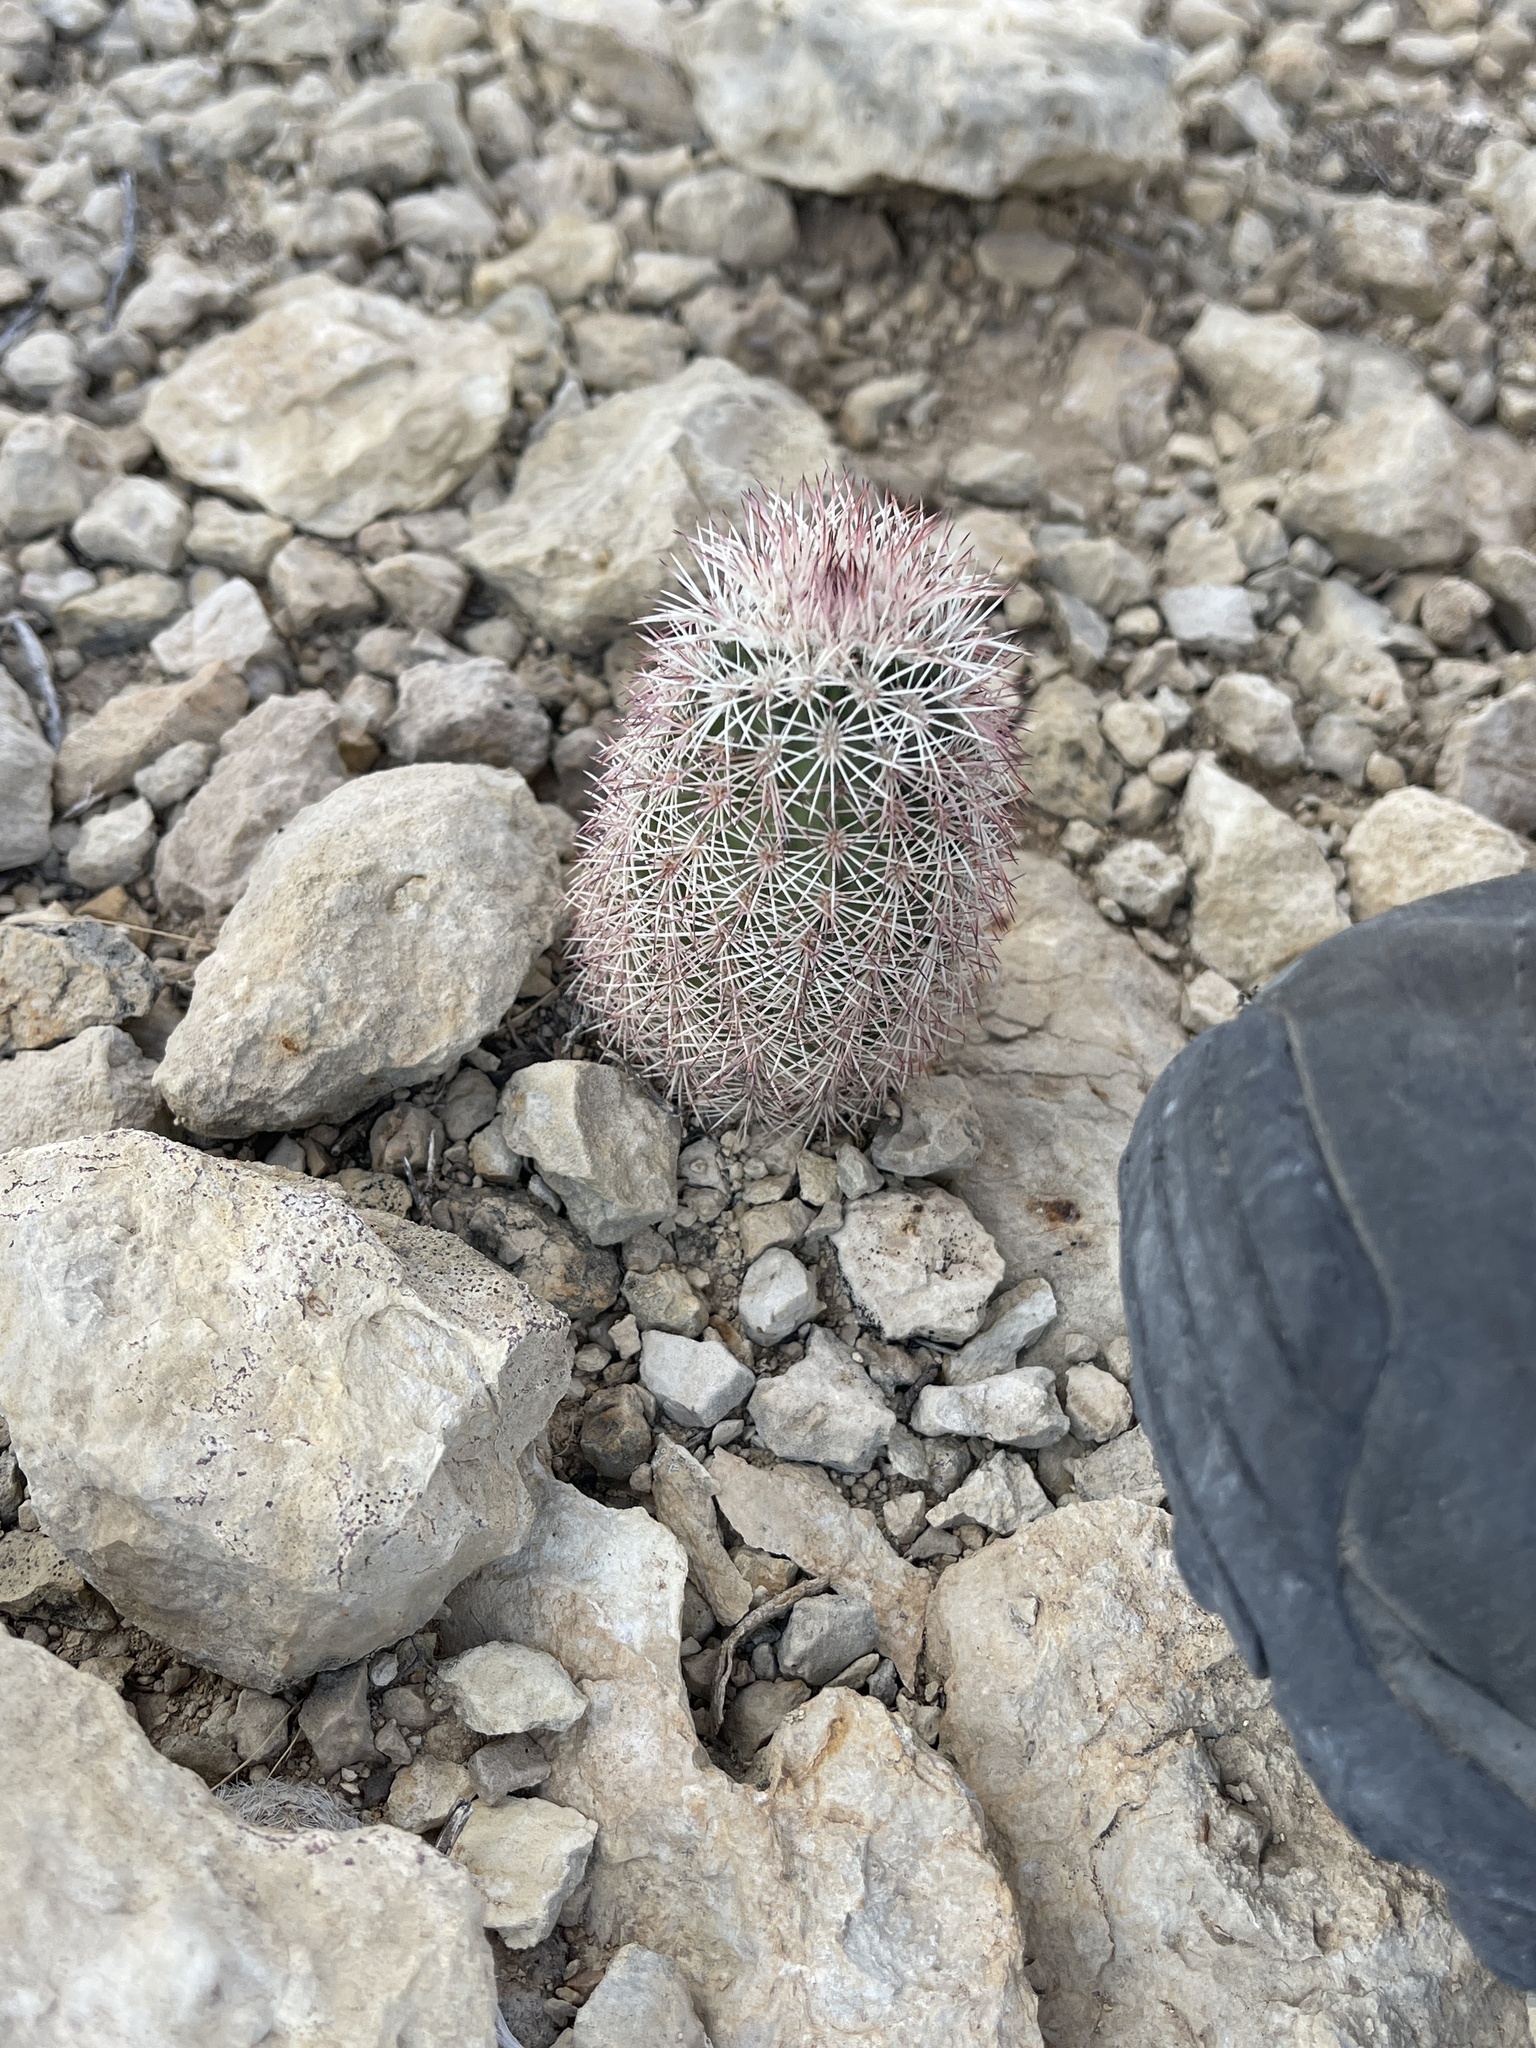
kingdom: Plantae
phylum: Tracheophyta
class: Magnoliopsida
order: Caryophyllales
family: Cactaceae
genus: Echinocereus
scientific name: Echinocereus dasyacanthus
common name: Spiny hedgehog cactus
